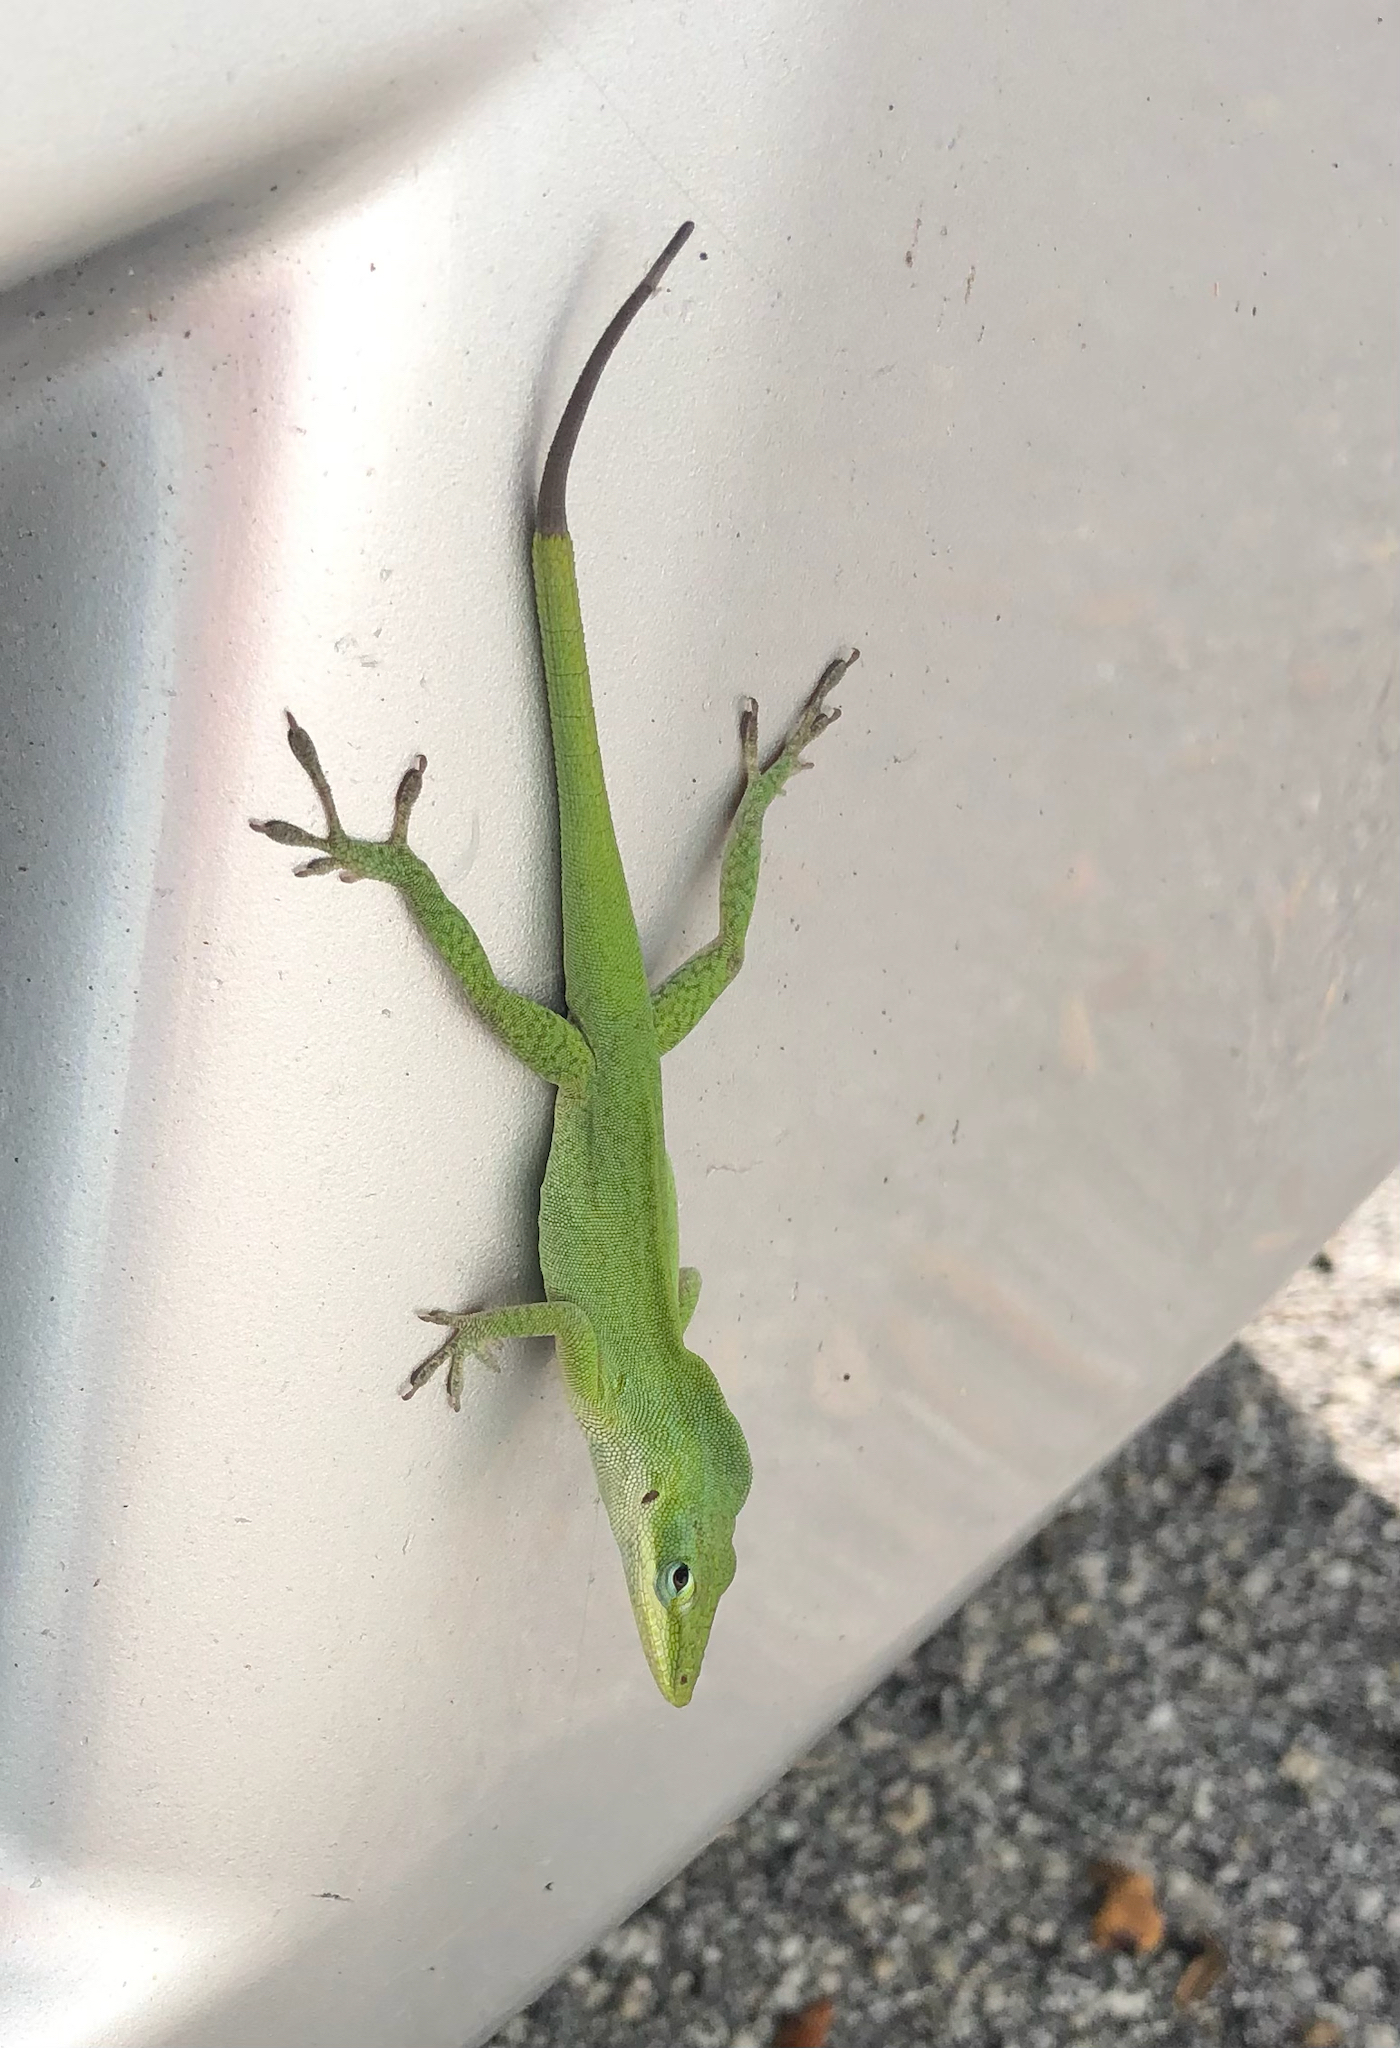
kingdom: Animalia
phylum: Chordata
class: Squamata
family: Dactyloidae
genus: Anolis
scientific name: Anolis carolinensis
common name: Green anole
